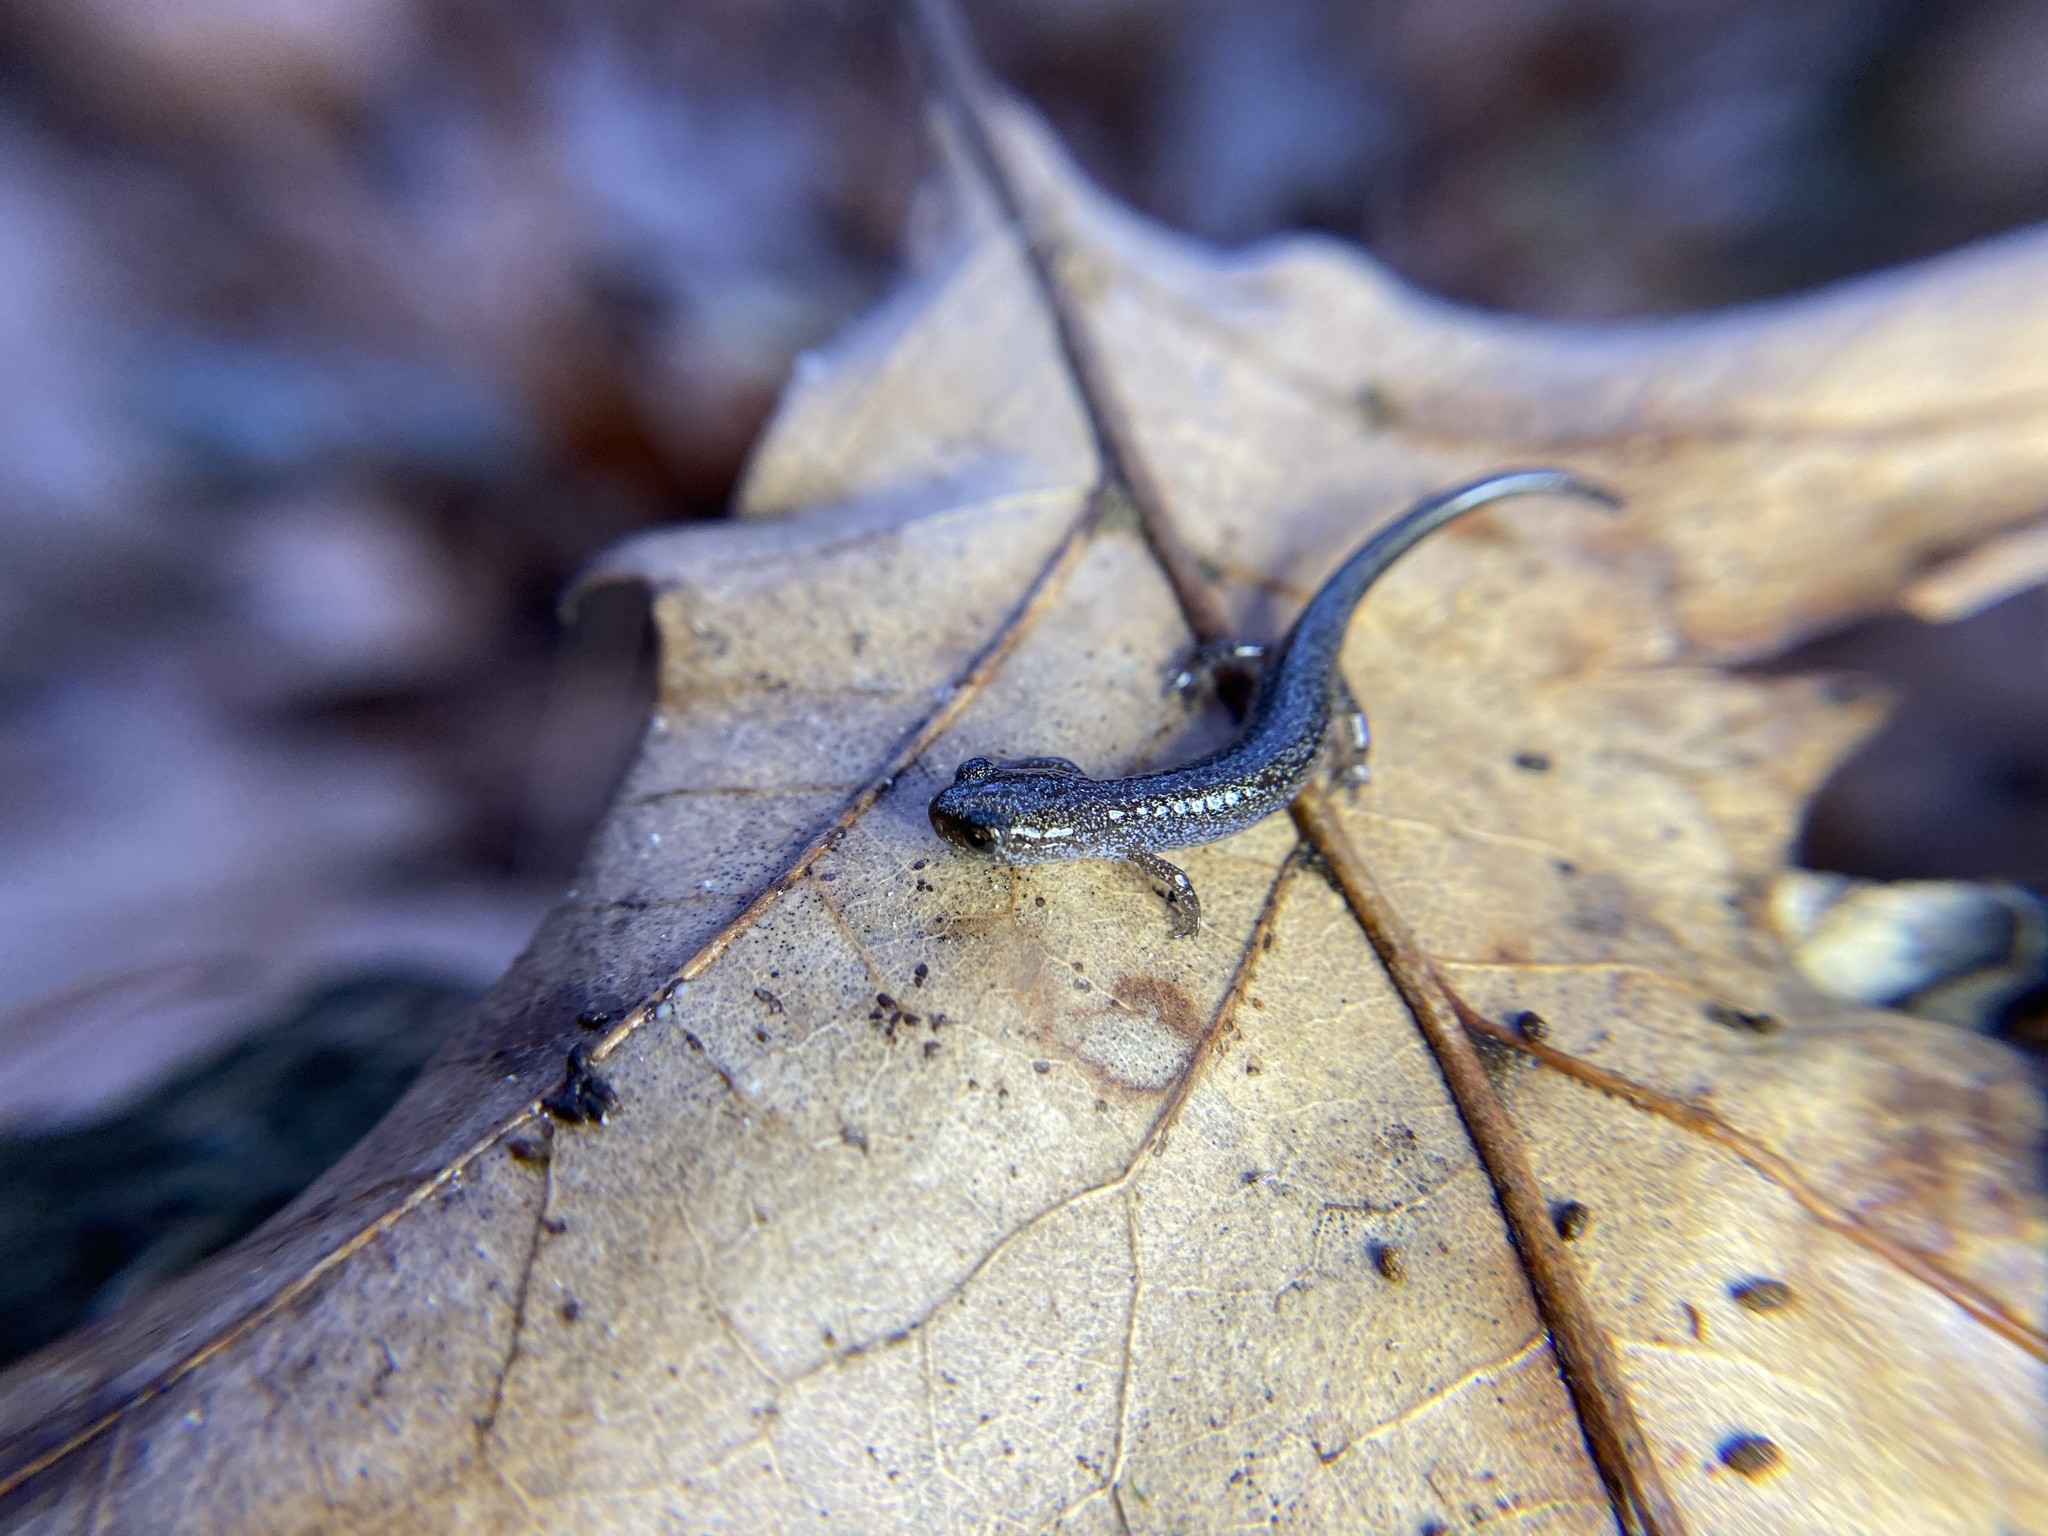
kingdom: Animalia
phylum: Chordata
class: Amphibia
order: Caudata
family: Plethodontidae
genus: Plethodon
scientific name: Plethodon cinereus
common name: Redback salamander
